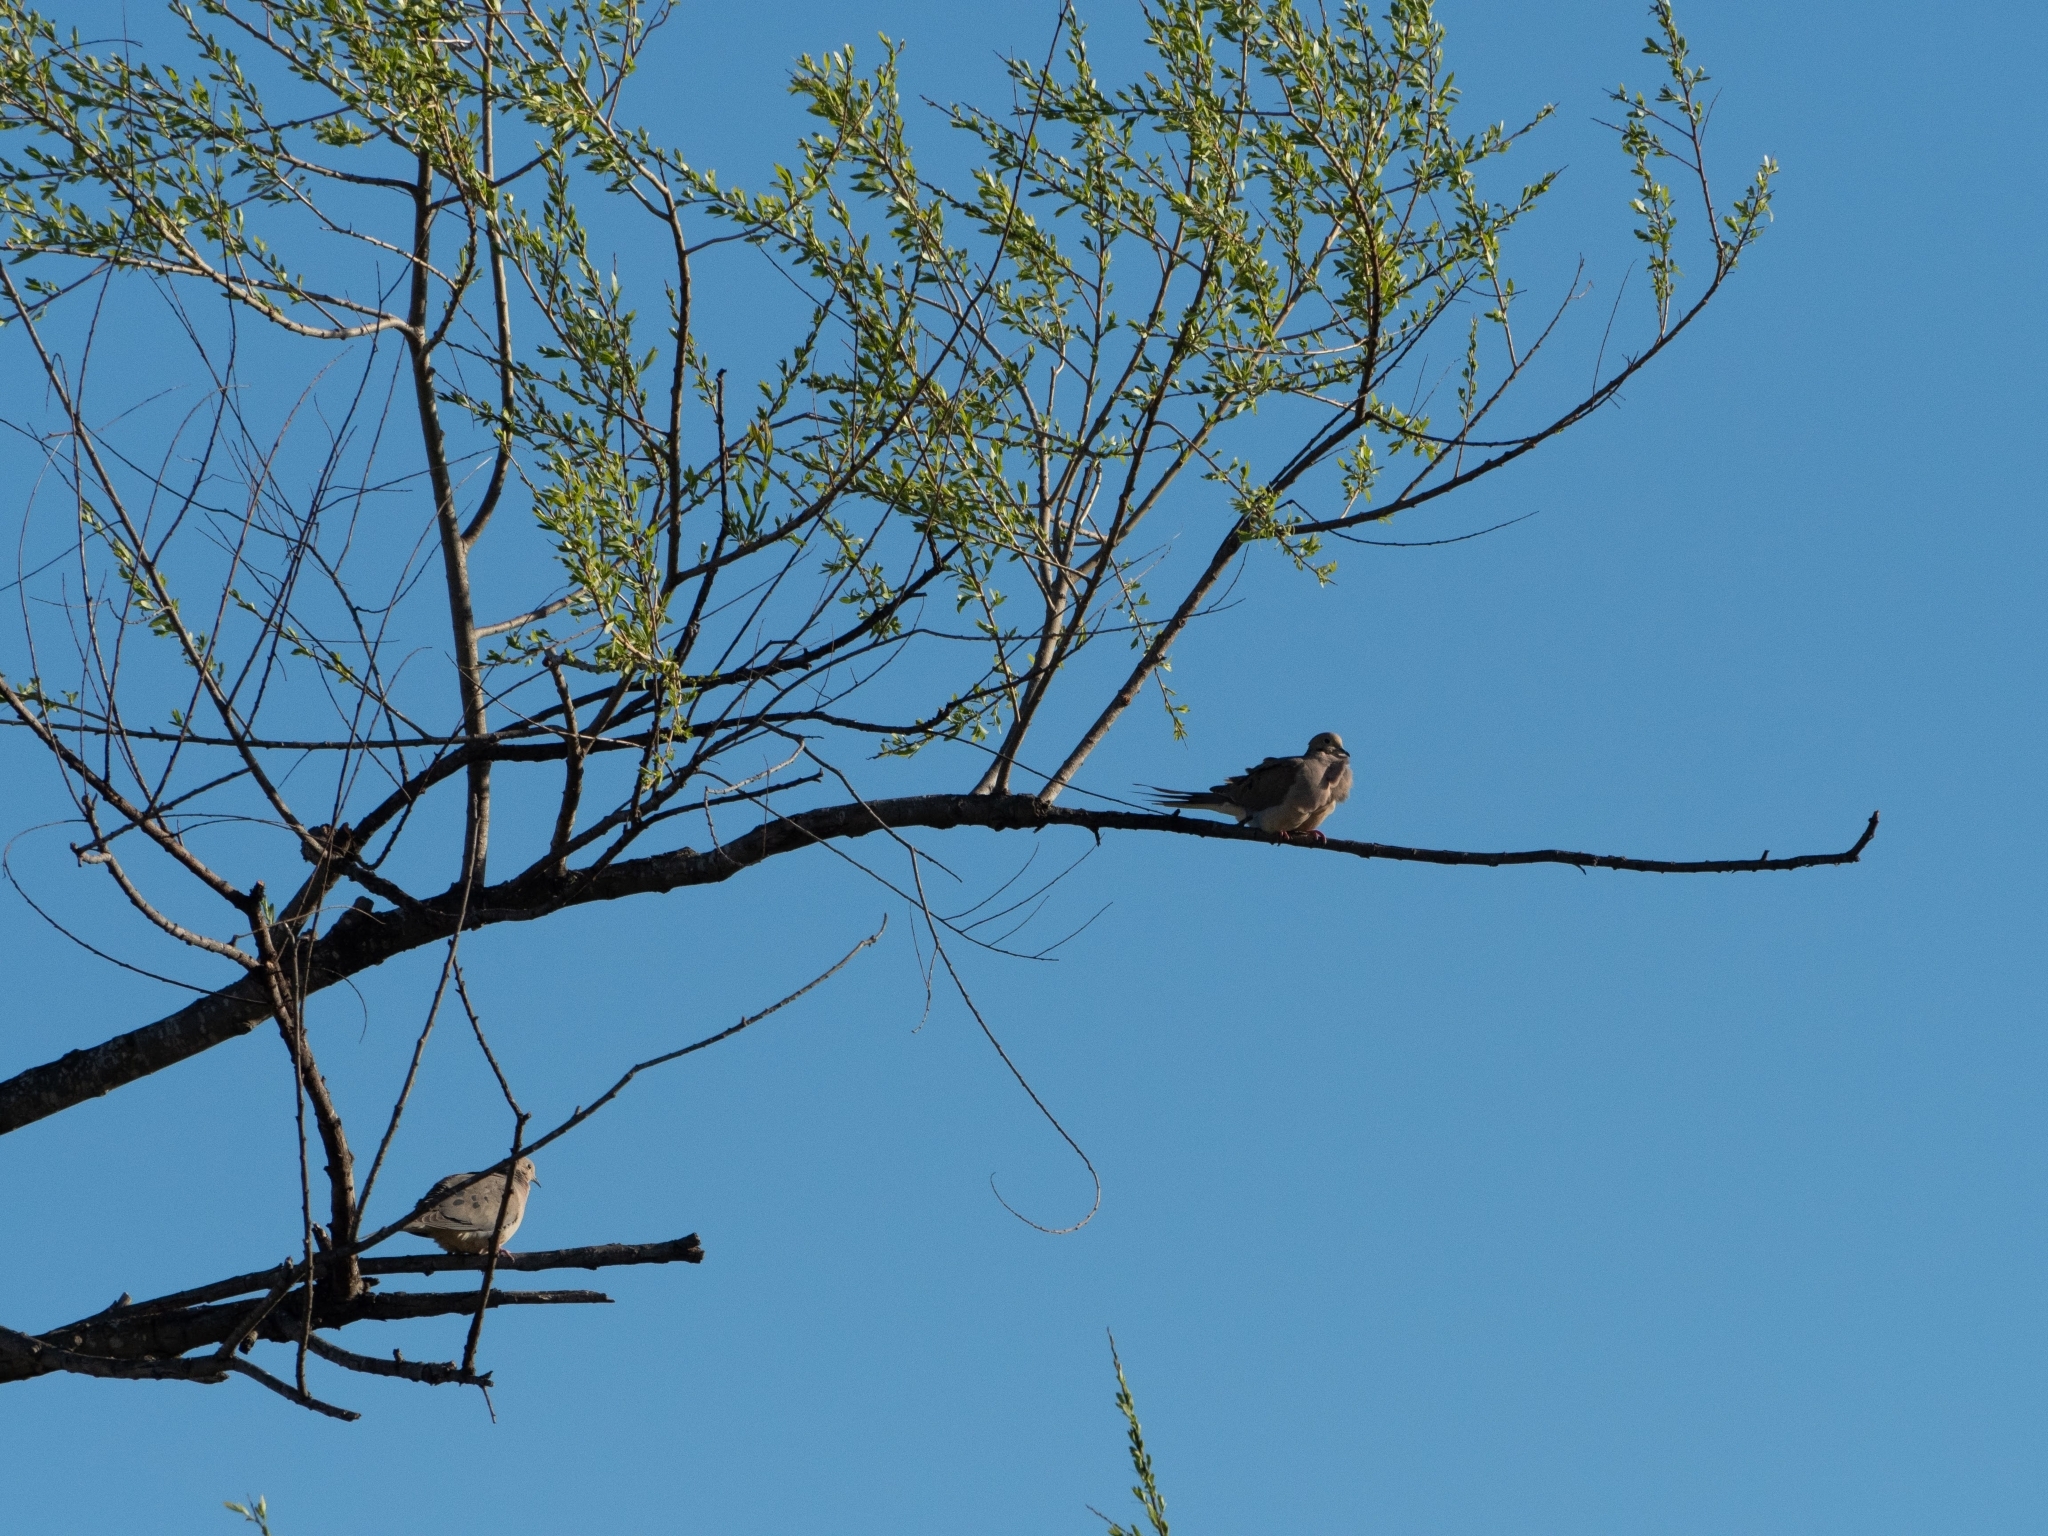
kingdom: Animalia
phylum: Chordata
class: Aves
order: Columbiformes
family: Columbidae
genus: Zenaida
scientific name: Zenaida macroura
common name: Mourning dove
